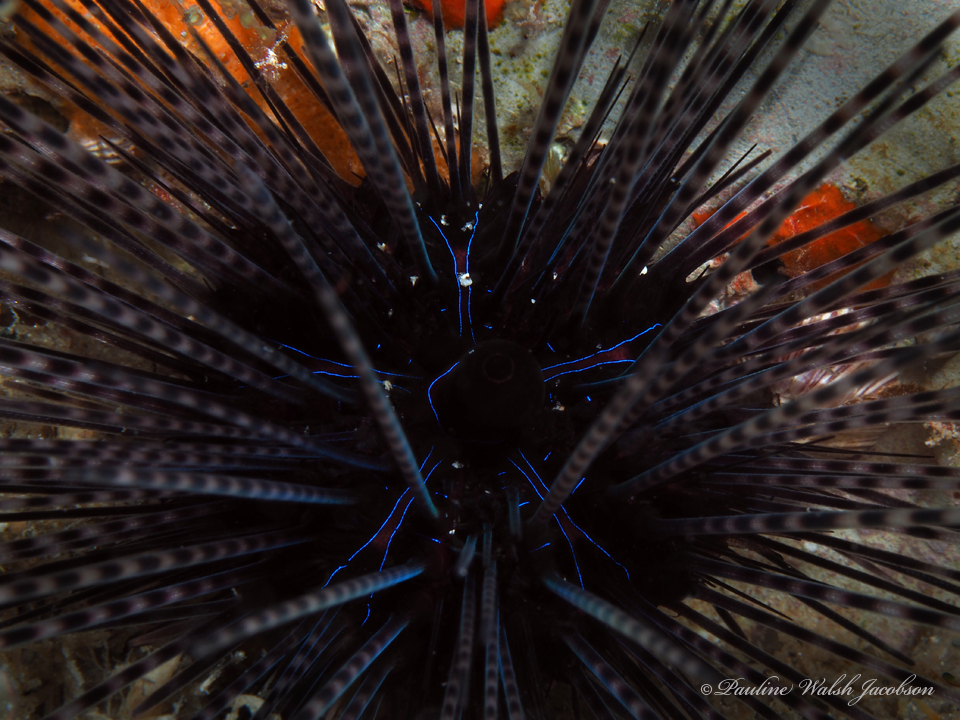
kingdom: Animalia
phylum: Echinodermata
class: Echinoidea
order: Diadematoida
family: Diadematidae
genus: Diadema
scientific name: Diadema antillarum
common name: Spiny urchin
